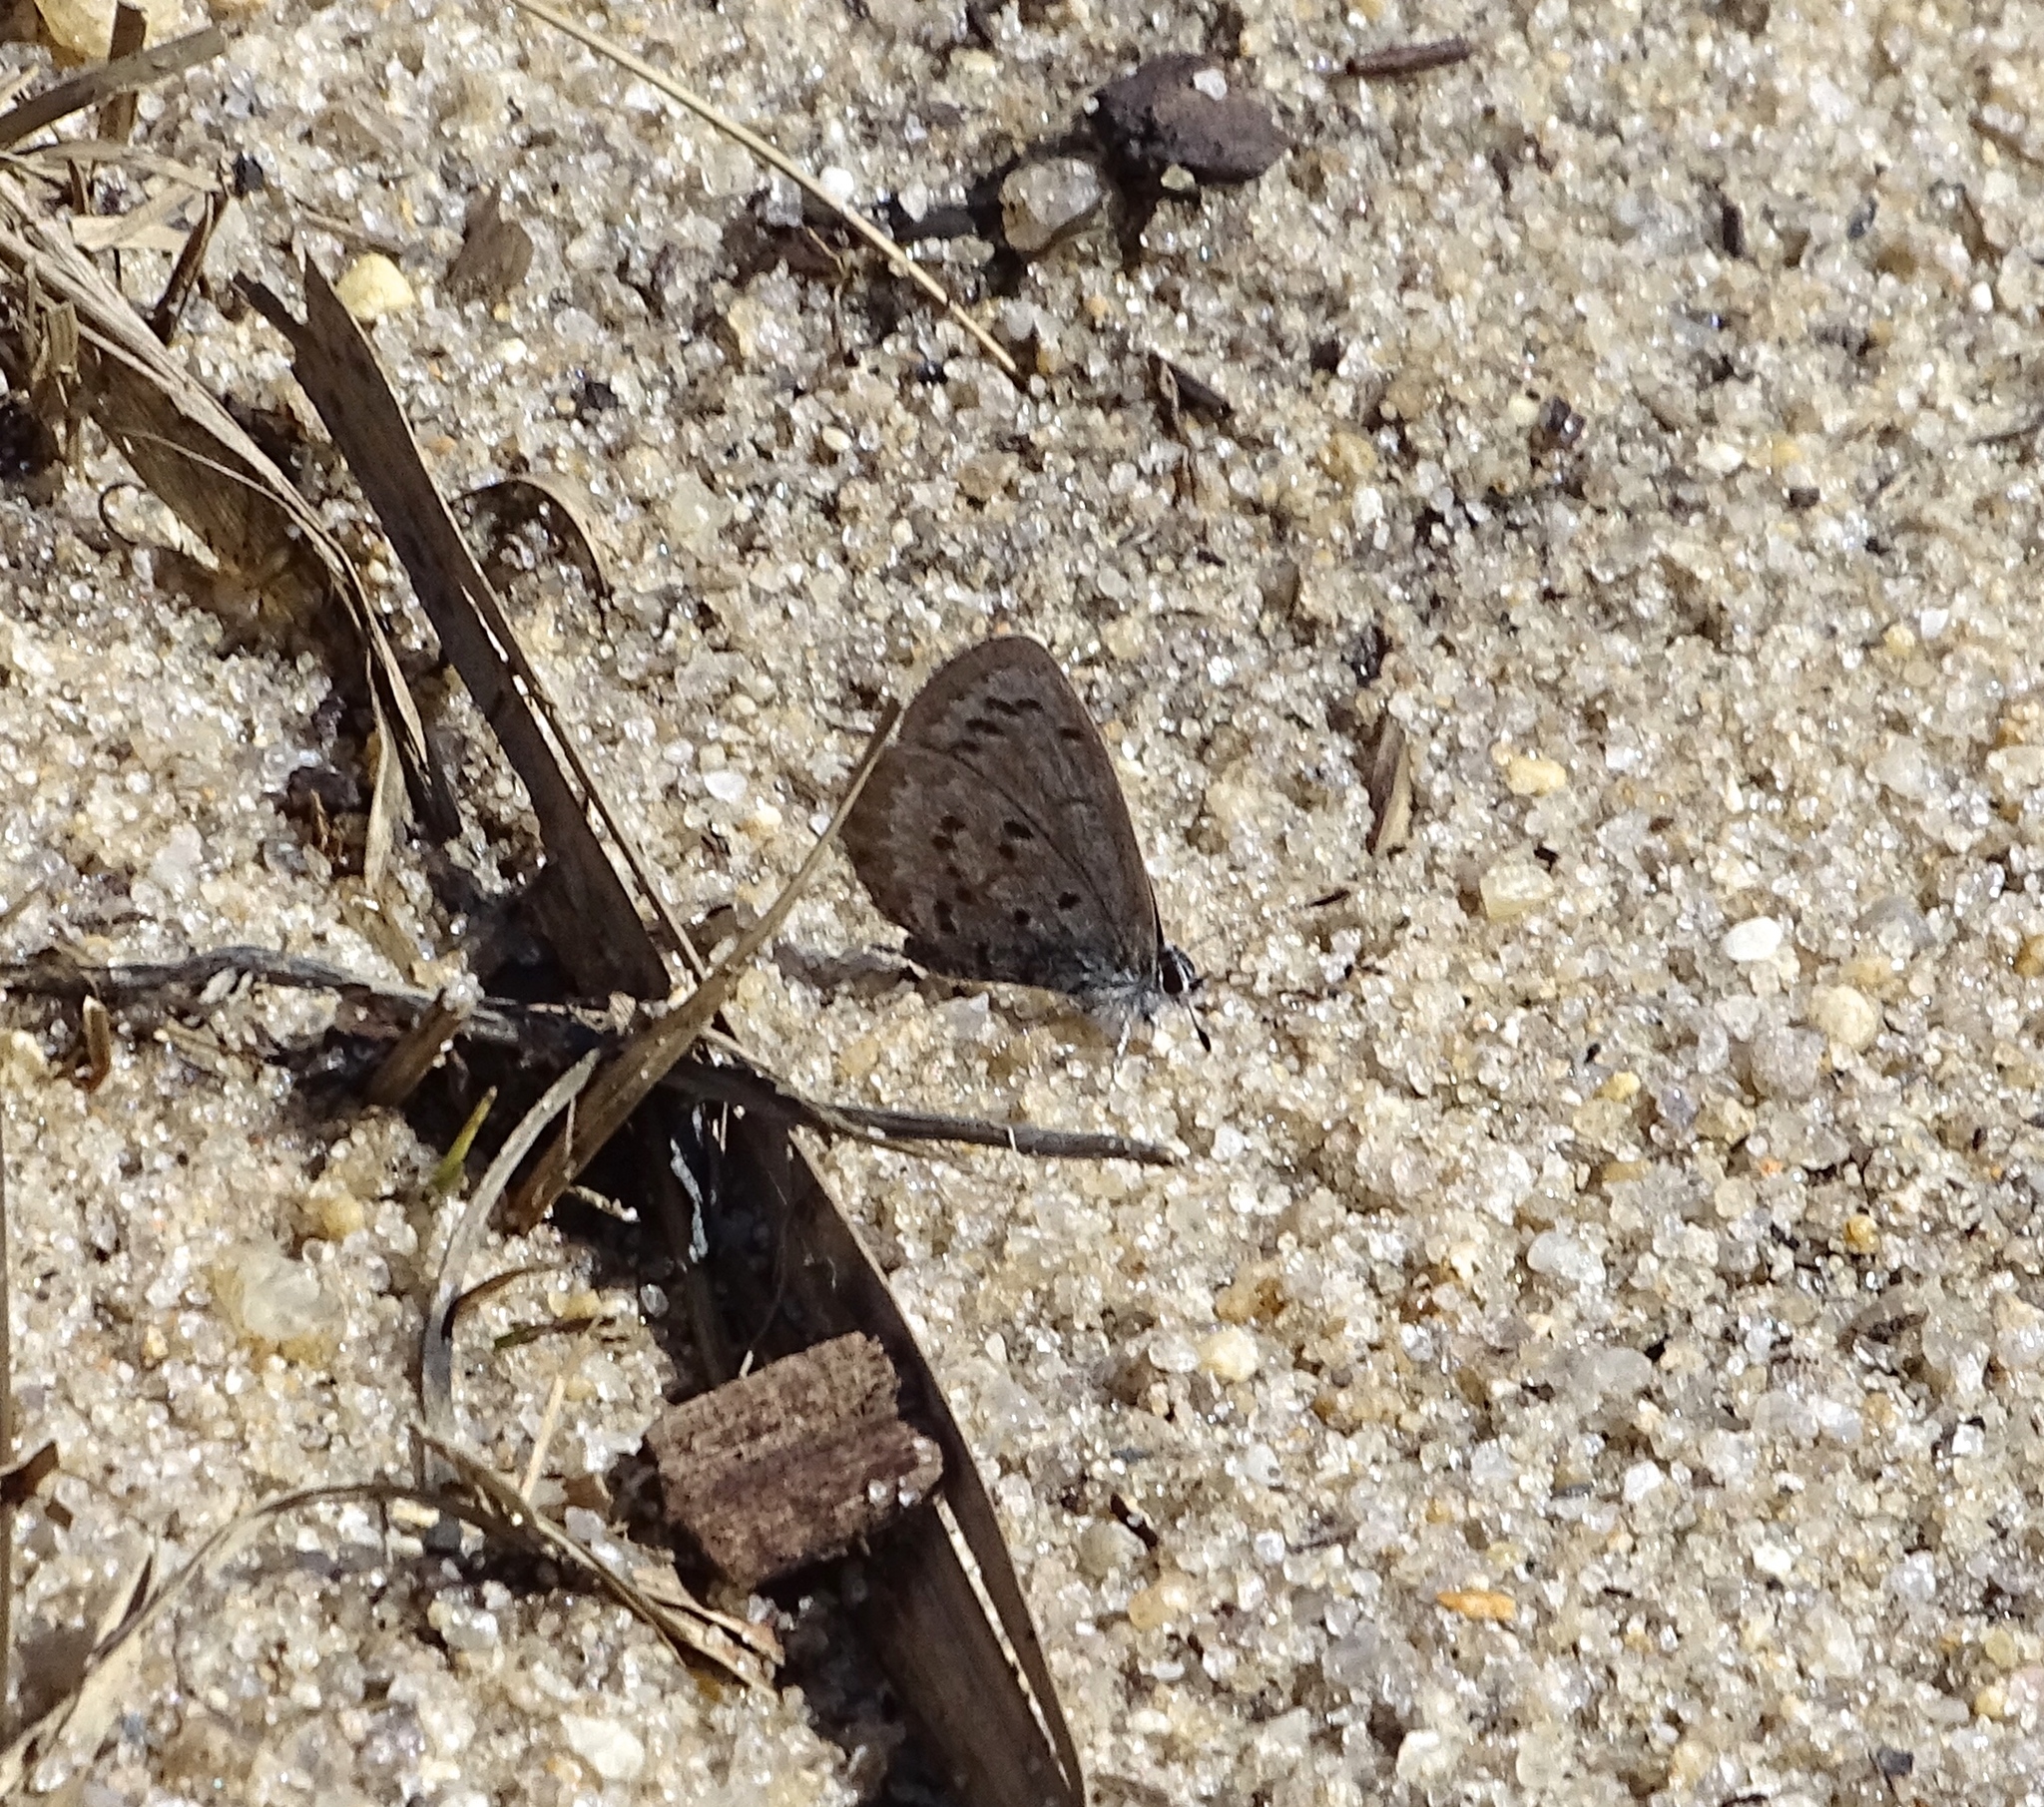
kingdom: Animalia
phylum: Arthropoda
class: Insecta
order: Lepidoptera
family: Lycaenidae
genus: Celastrina
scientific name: Celastrina ladon
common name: Spring azure
